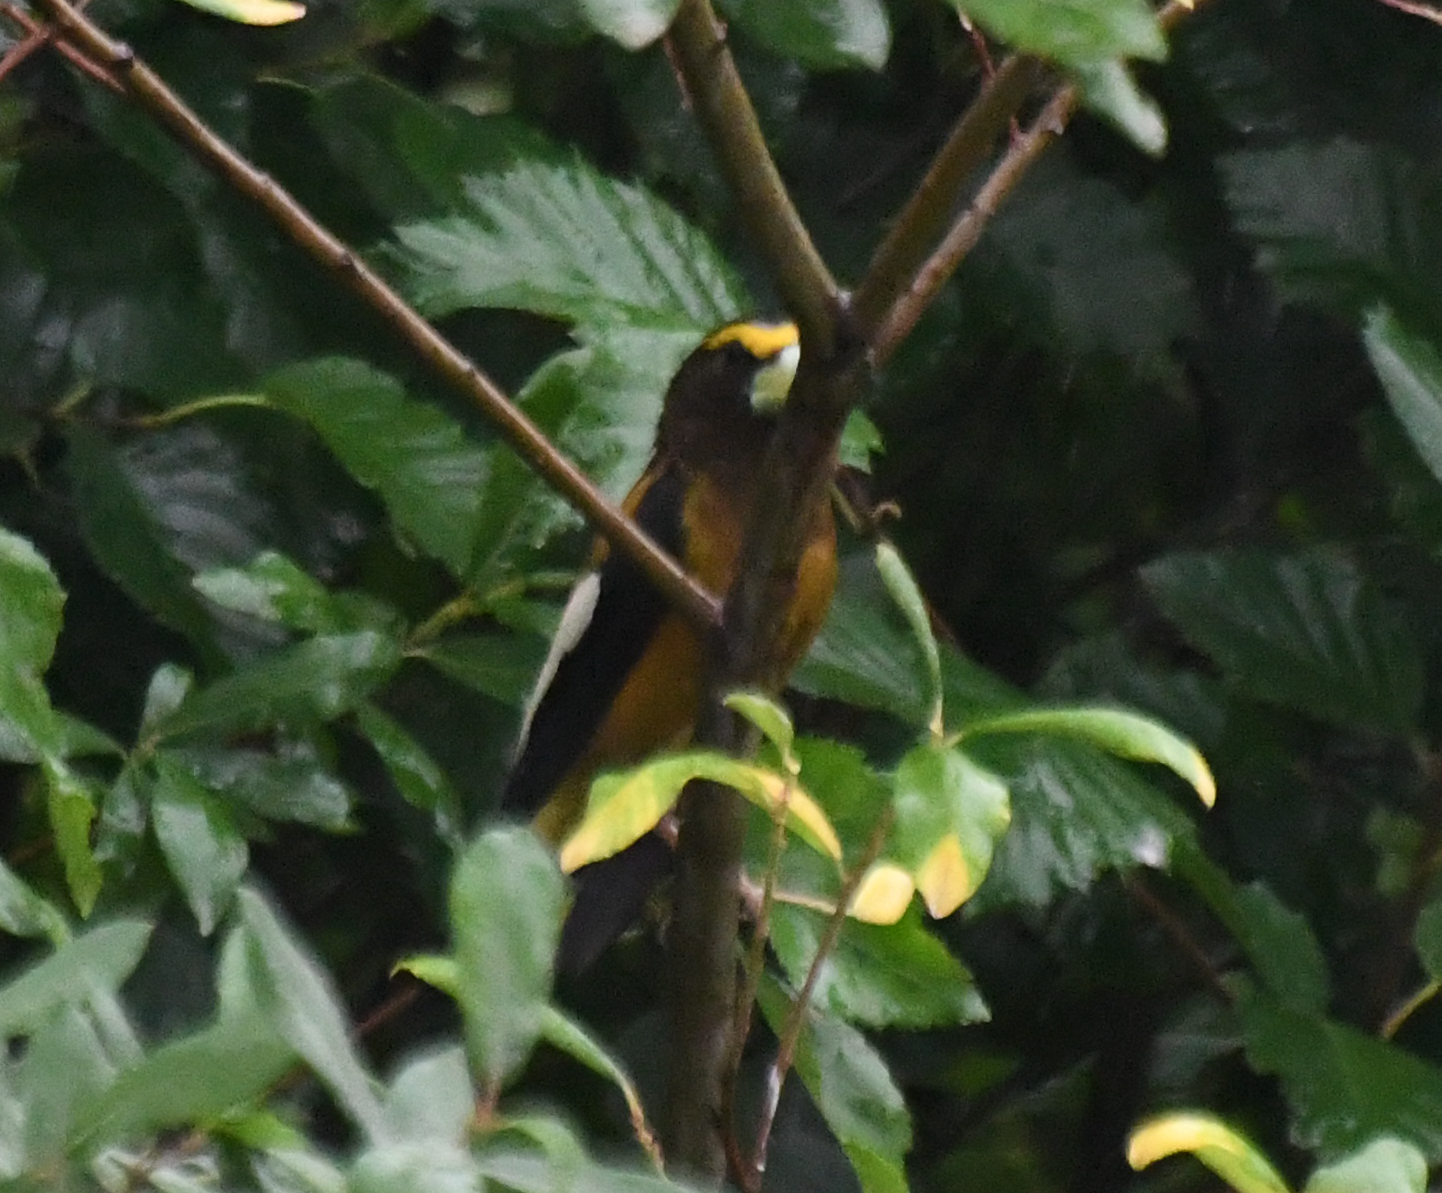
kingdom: Animalia
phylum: Chordata
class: Aves
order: Passeriformes
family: Fringillidae
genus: Hesperiphona
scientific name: Hesperiphona vespertina
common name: Evening grosbeak
